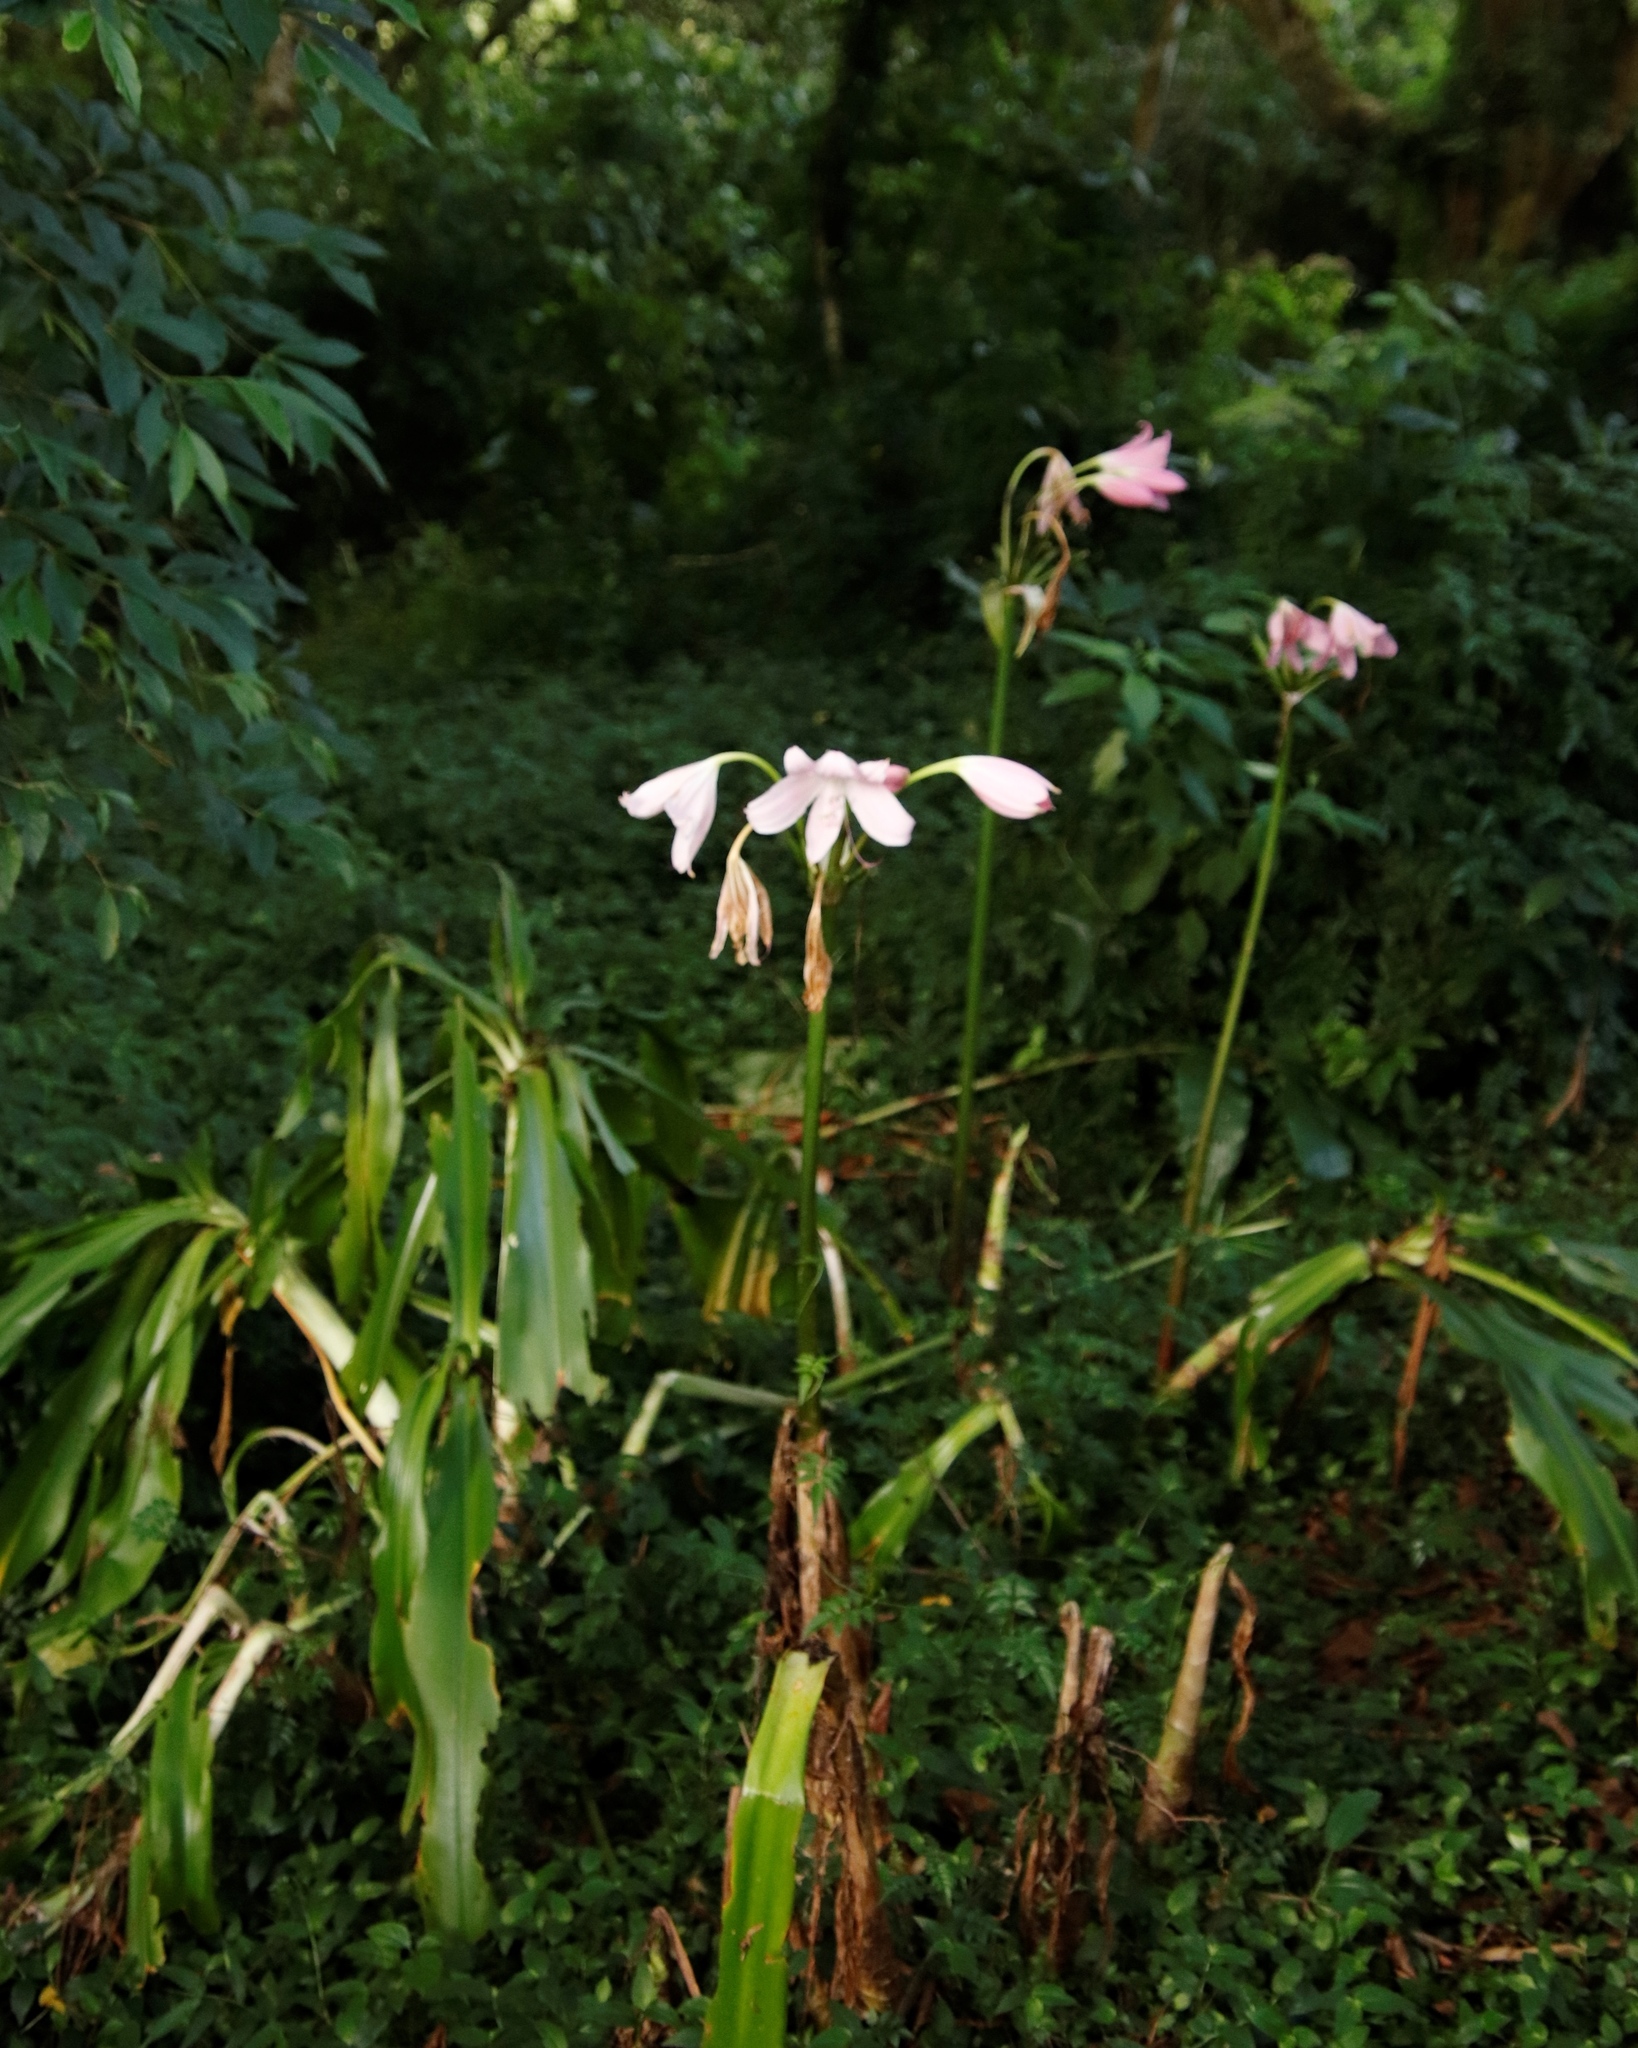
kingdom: Plantae
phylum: Tracheophyta
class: Liliopsida
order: Asparagales
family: Amaryllidaceae
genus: Crinum
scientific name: Crinum moorei
